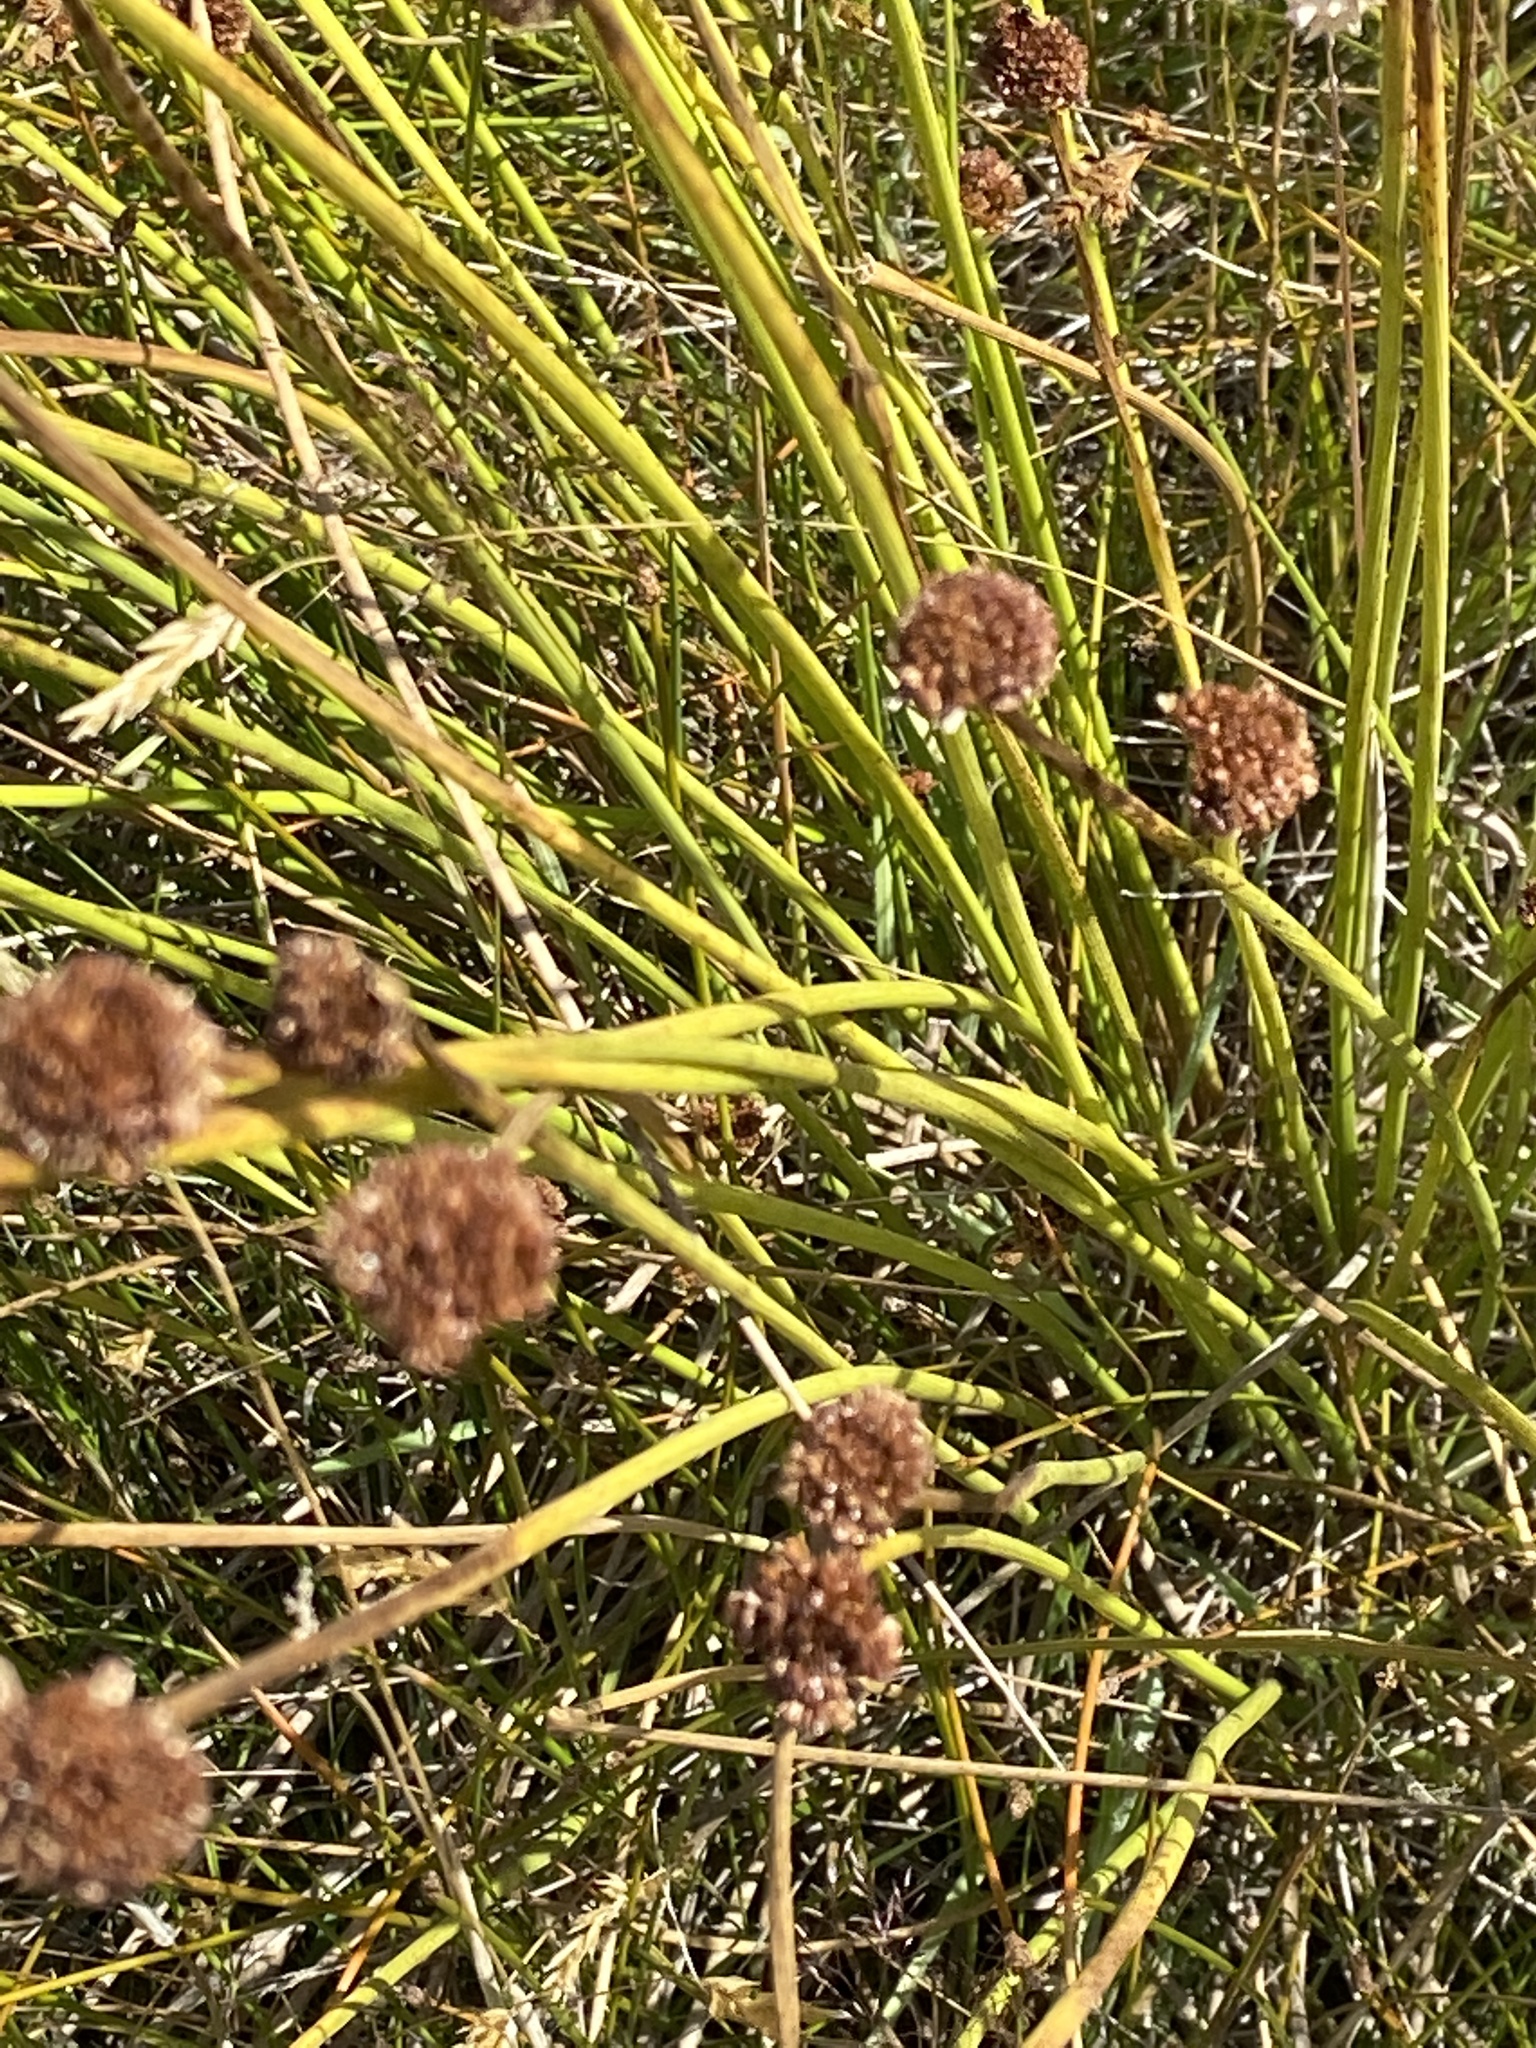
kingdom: Plantae
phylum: Tracheophyta
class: Liliopsida
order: Poales
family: Cyperaceae
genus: Ficinia
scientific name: Ficinia nodosa
